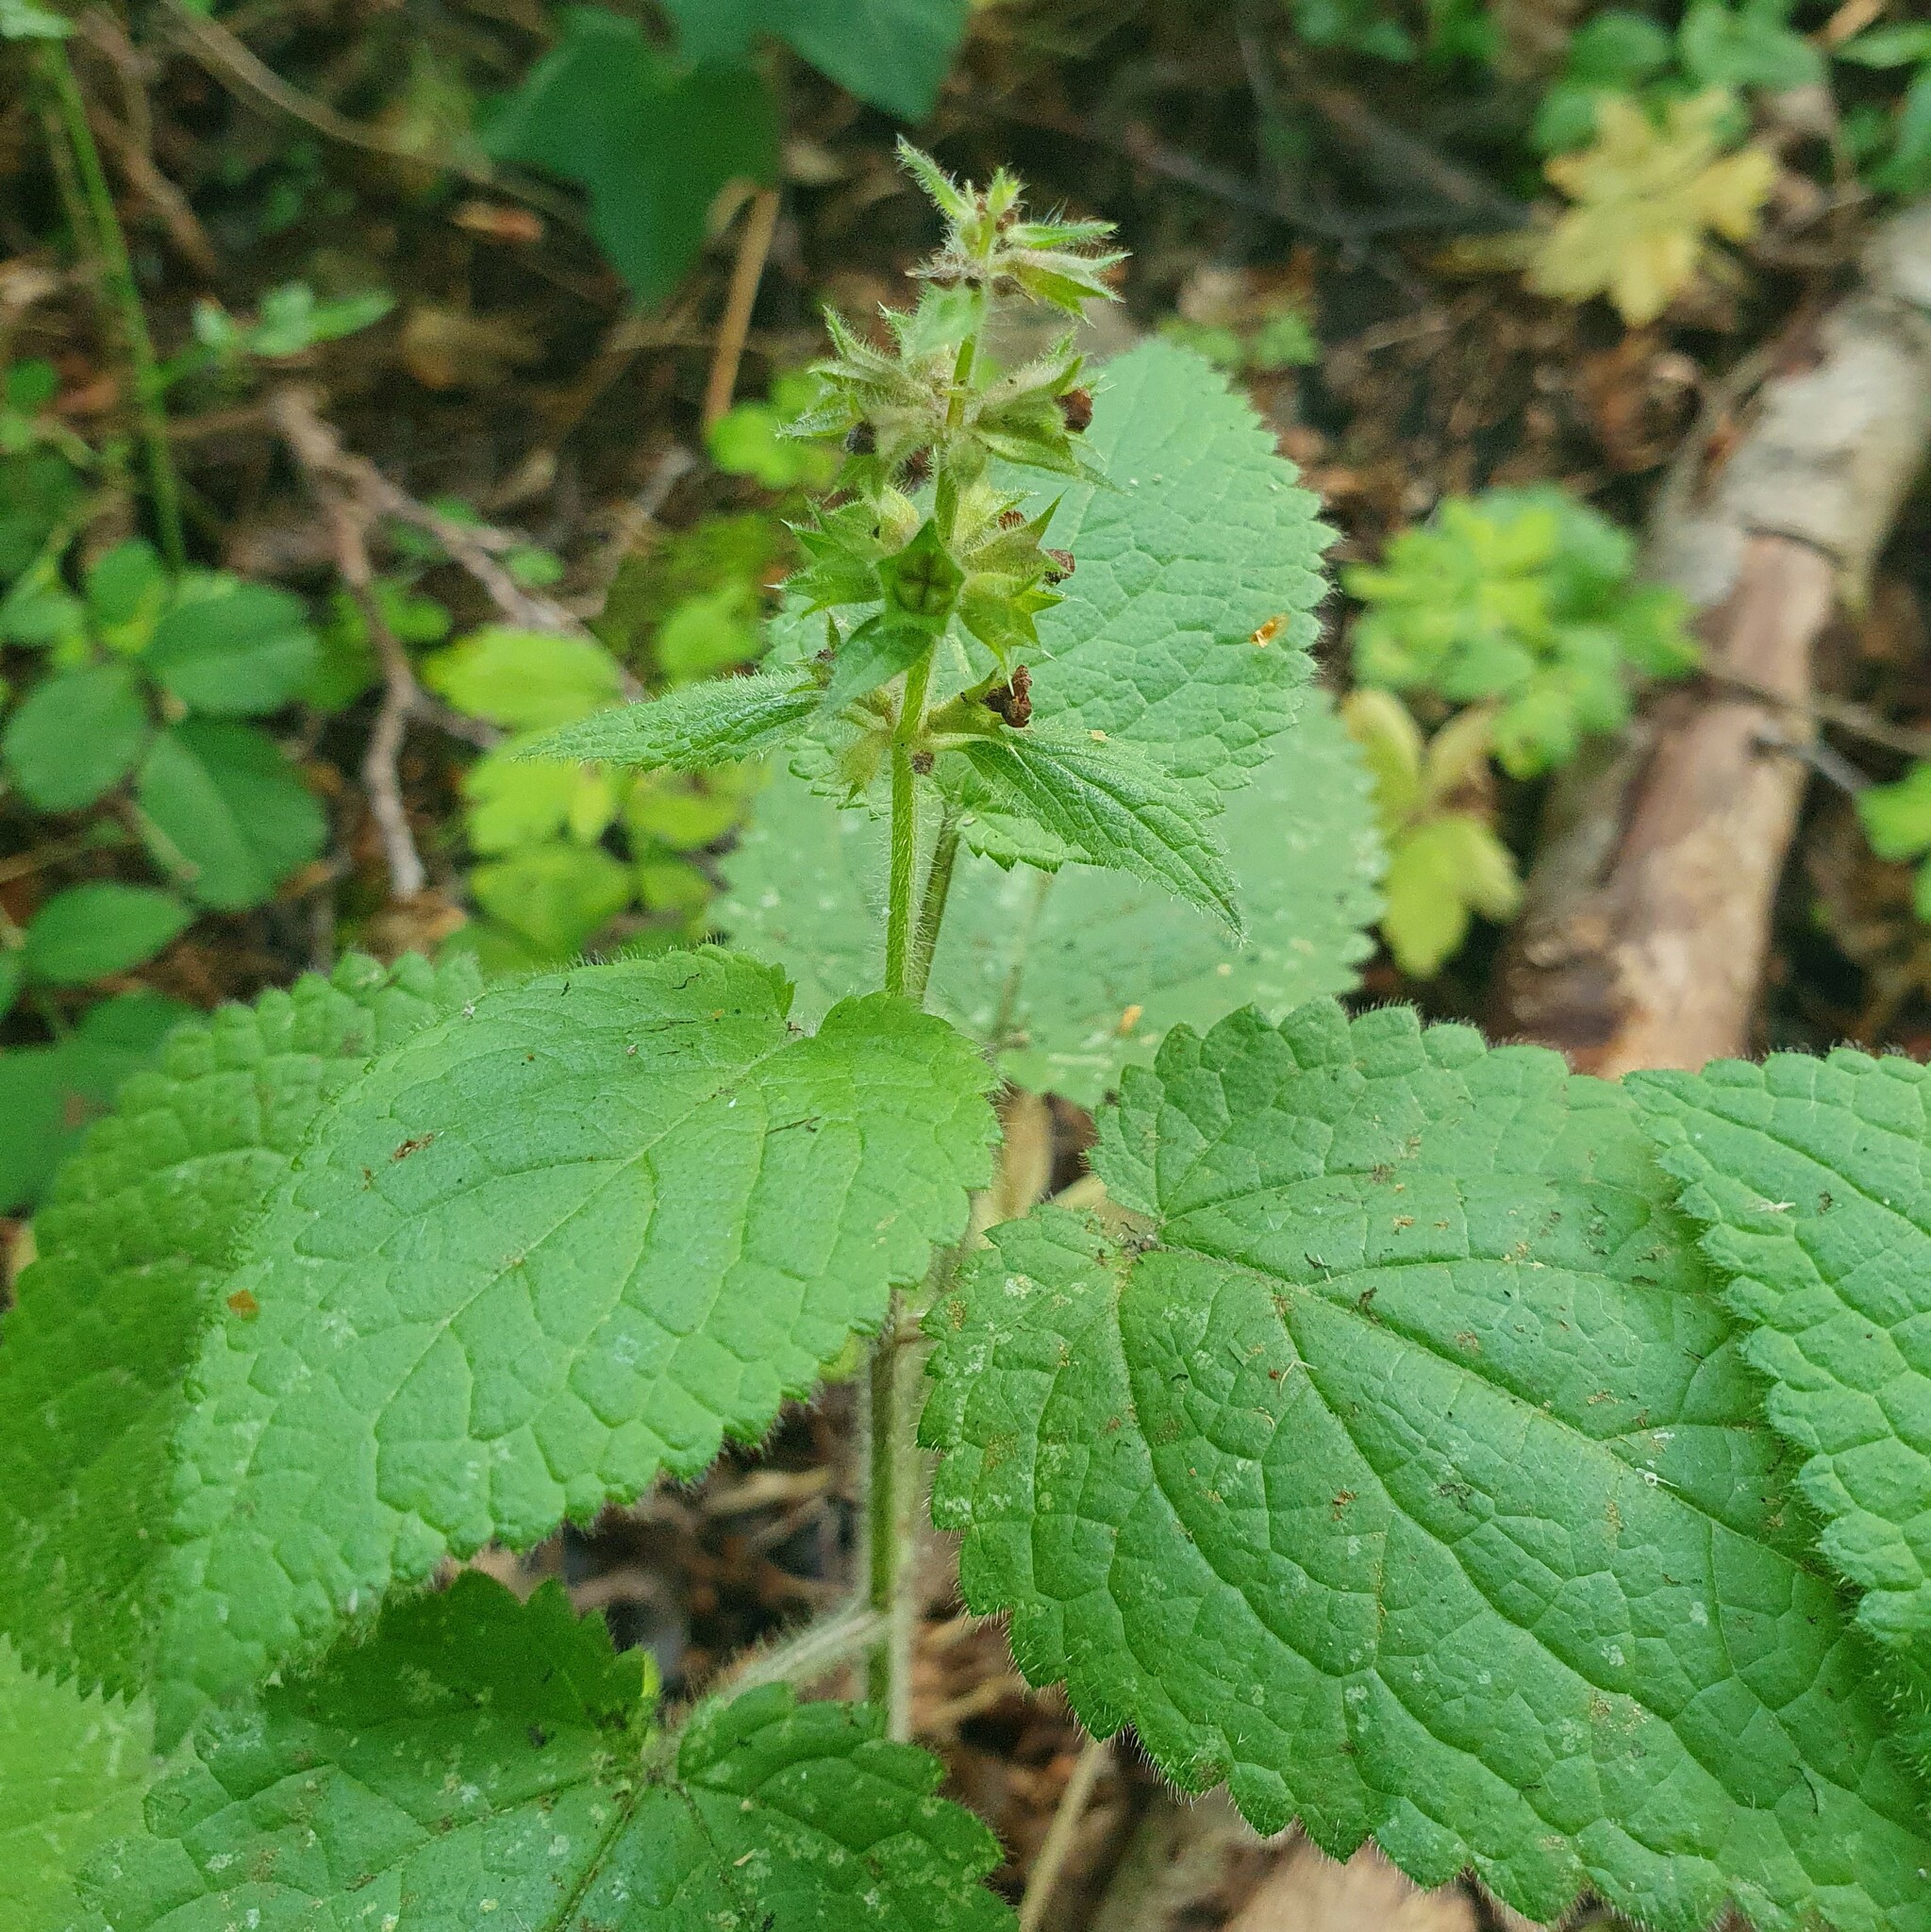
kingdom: Plantae
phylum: Tracheophyta
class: Magnoliopsida
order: Lamiales
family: Lamiaceae
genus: Stachys
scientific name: Stachys sylvatica
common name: Hedge woundwort
